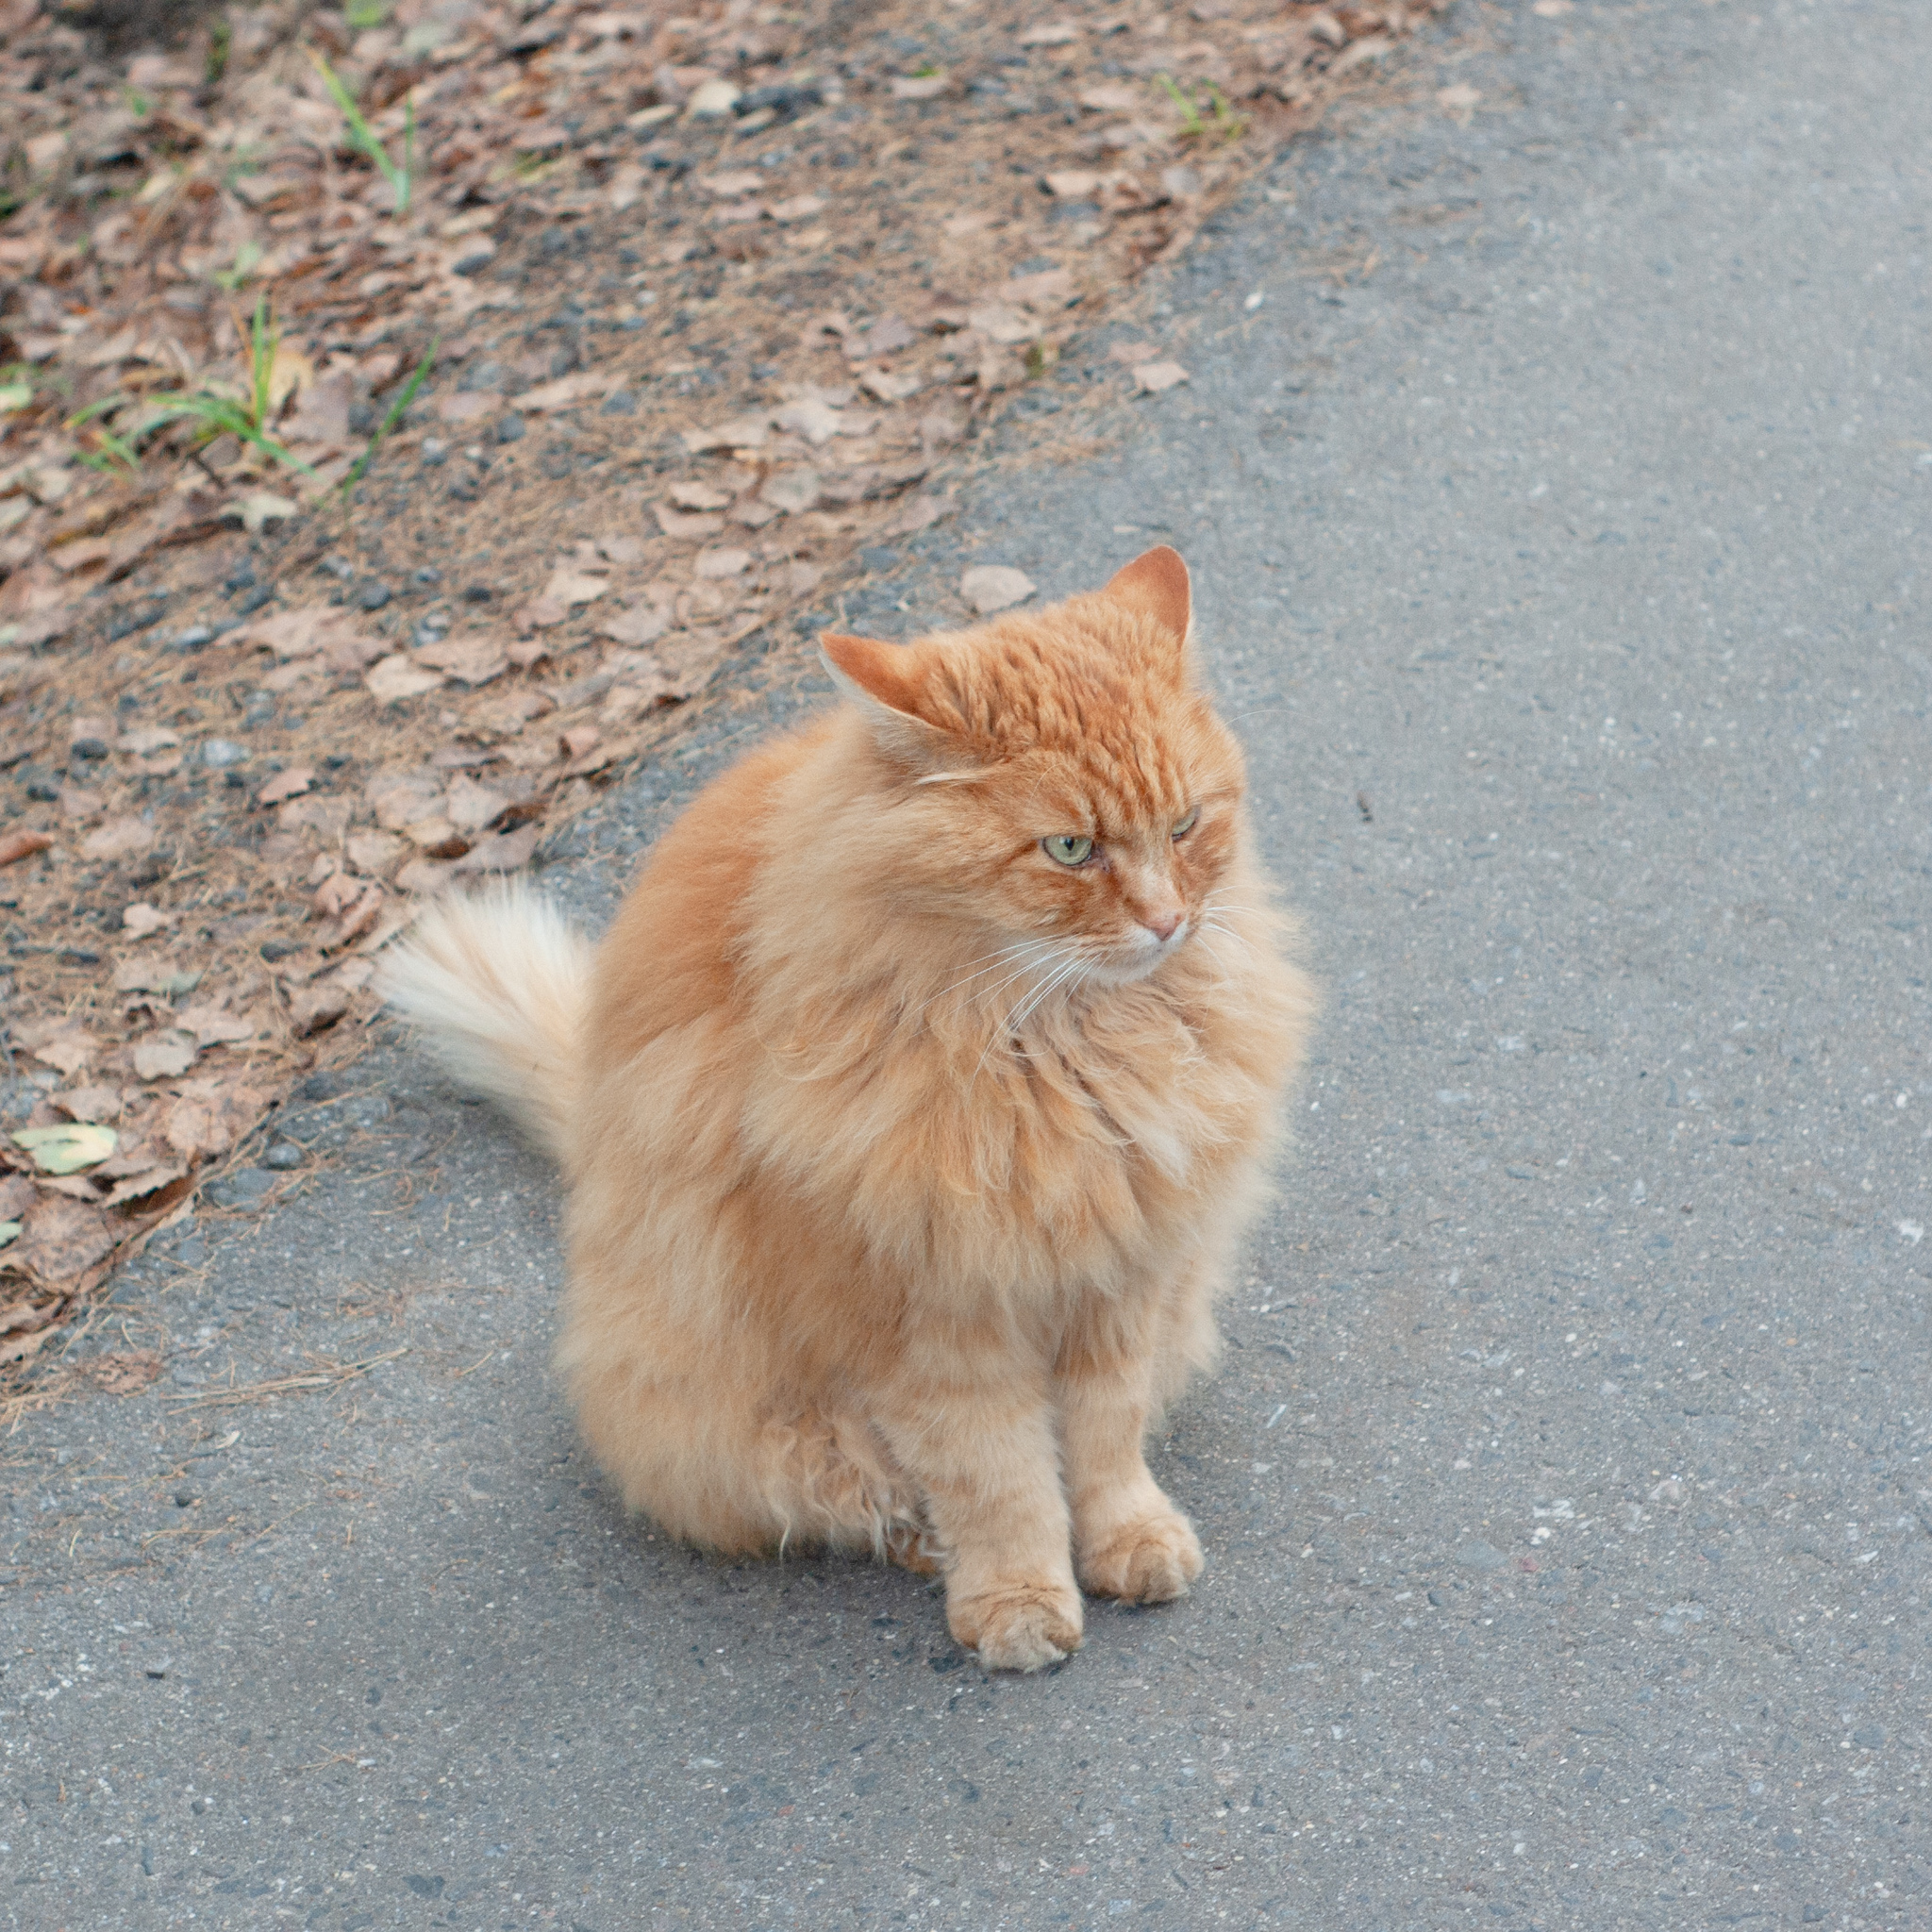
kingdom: Animalia
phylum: Chordata
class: Mammalia
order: Carnivora
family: Felidae
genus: Felis
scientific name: Felis catus
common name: Domestic cat
